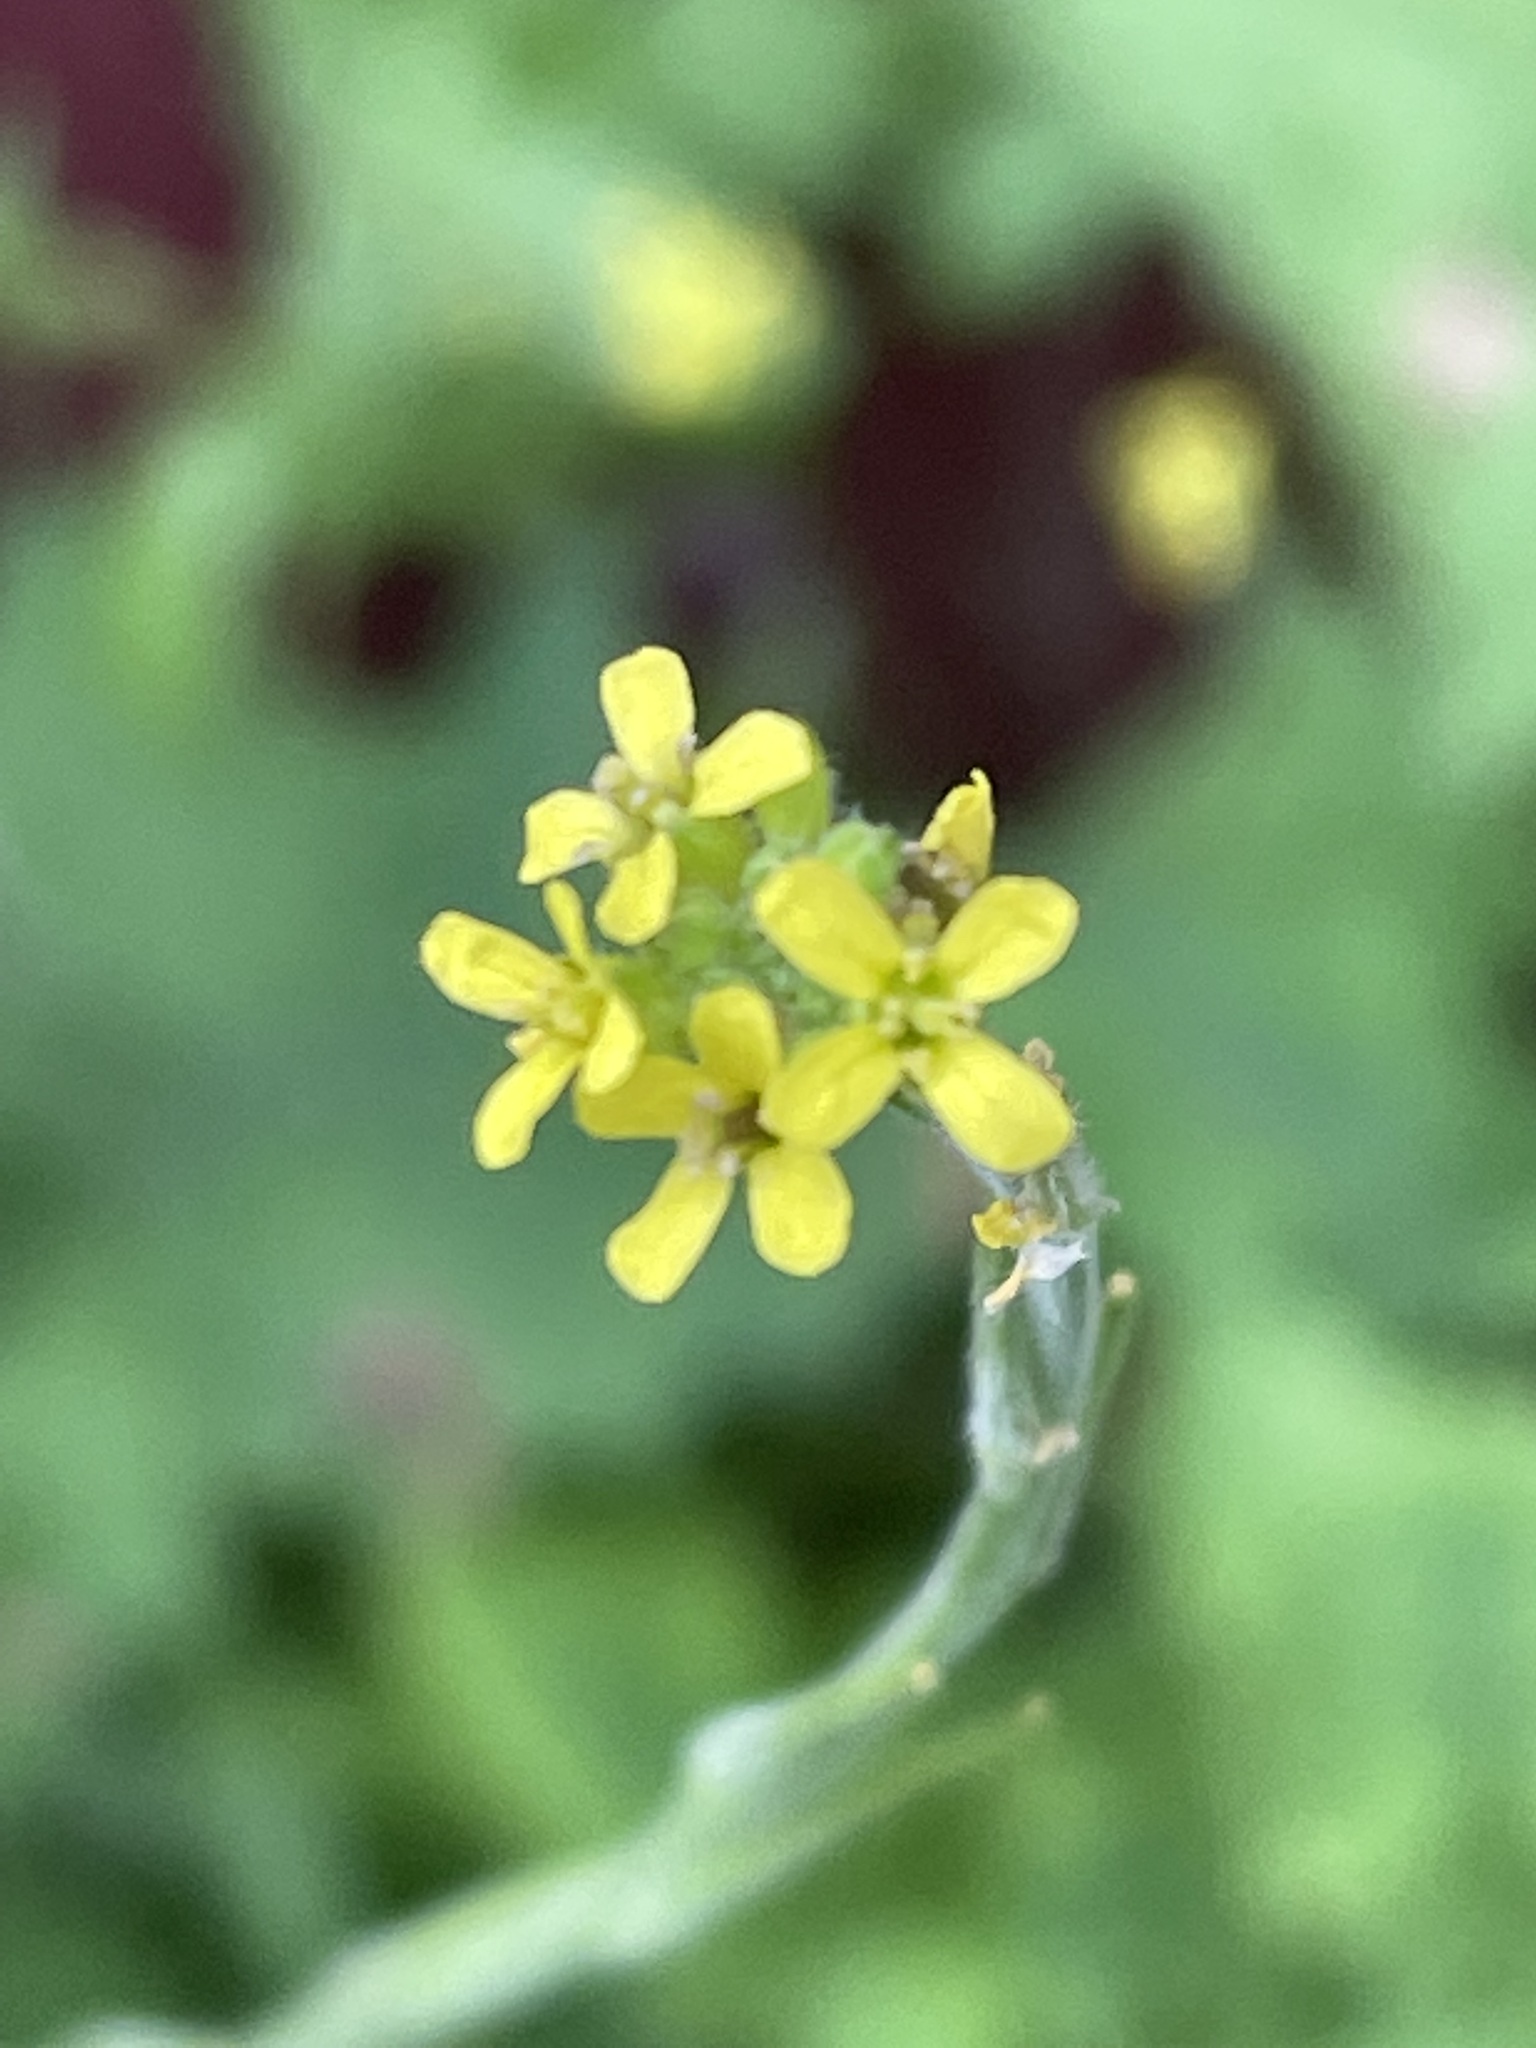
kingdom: Plantae
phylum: Tracheophyta
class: Magnoliopsida
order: Brassicales
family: Brassicaceae
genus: Sisymbrium
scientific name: Sisymbrium officinale
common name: Hedge mustard
